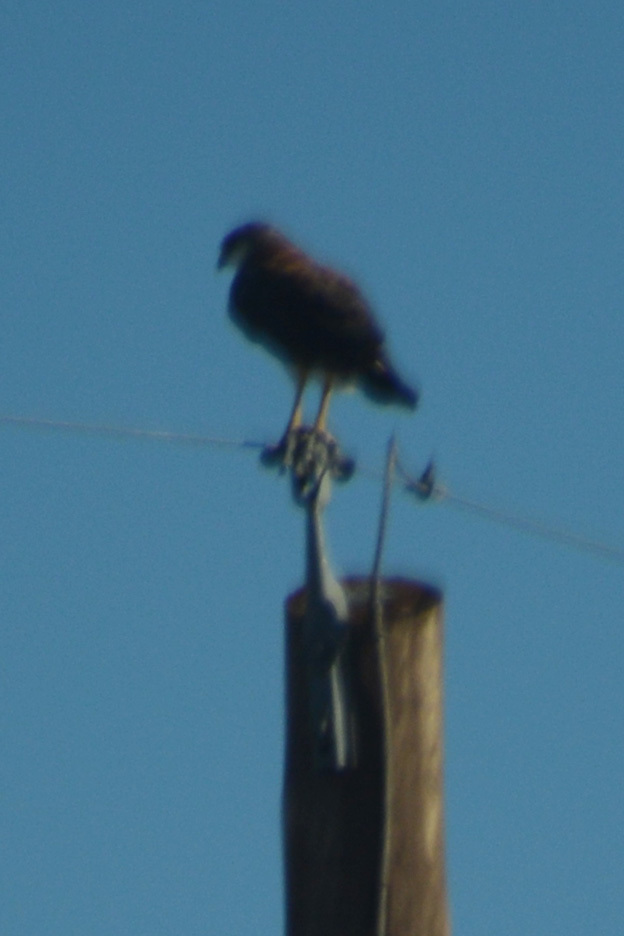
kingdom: Animalia
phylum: Chordata
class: Aves
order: Accipitriformes
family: Accipitridae
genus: Buteo
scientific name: Buteo polyosoma
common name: Variable hawk
